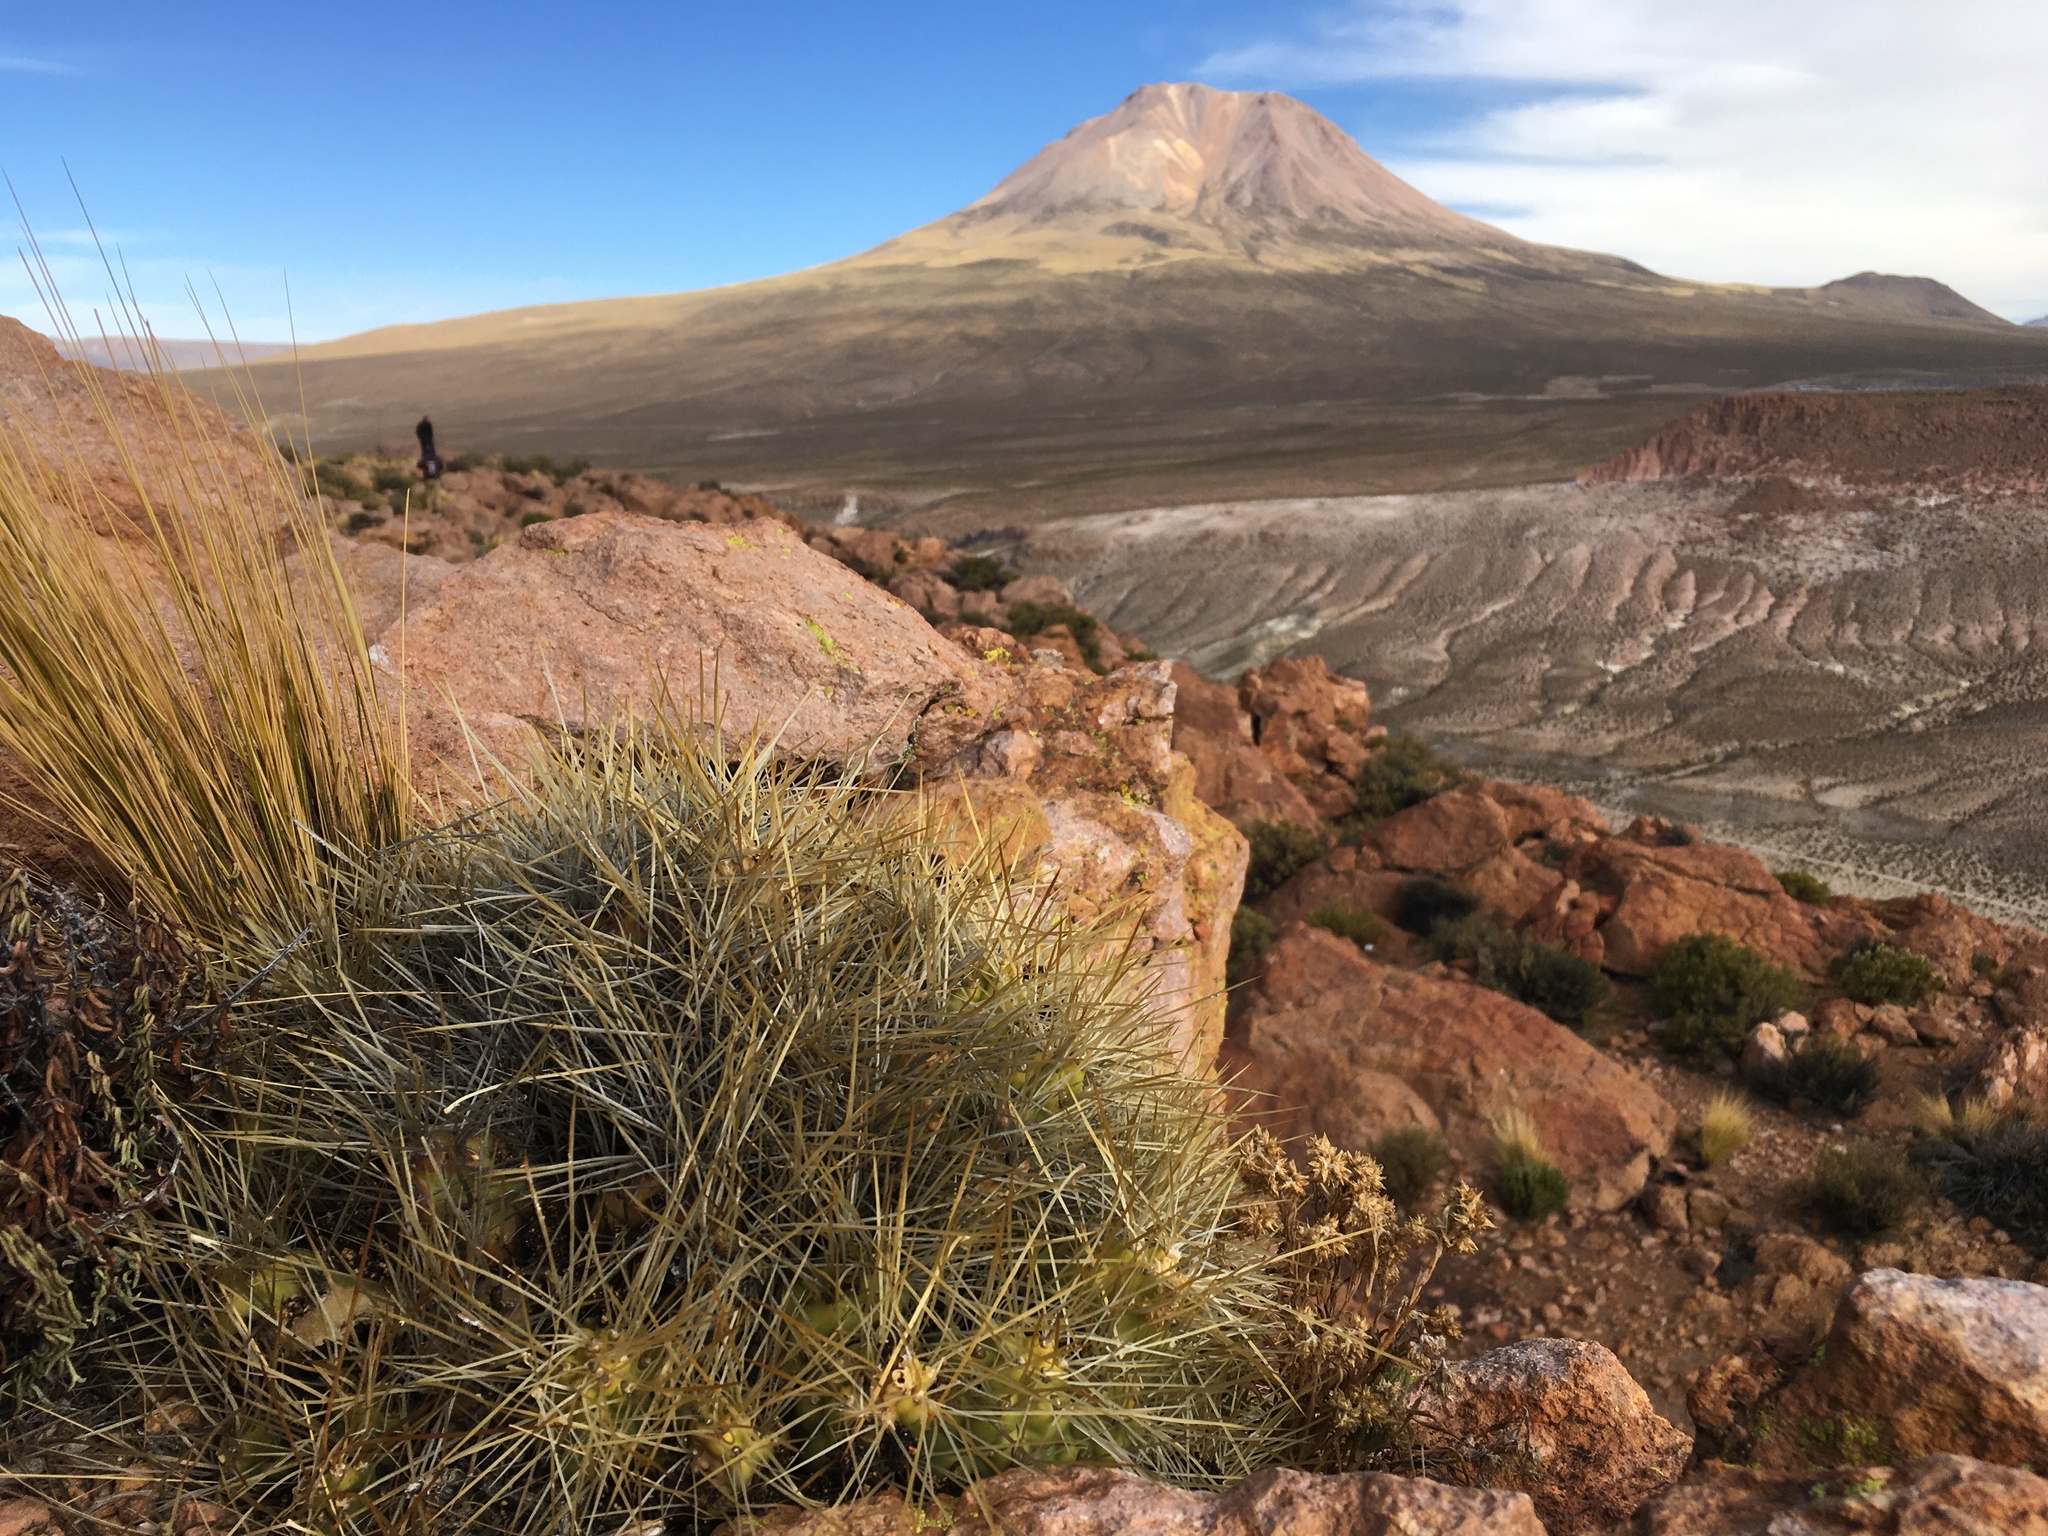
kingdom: Plantae
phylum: Tracheophyta
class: Magnoliopsida
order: Caryophyllales
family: Cactaceae
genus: Cumulopuntia
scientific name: Cumulopuntia boliviana
